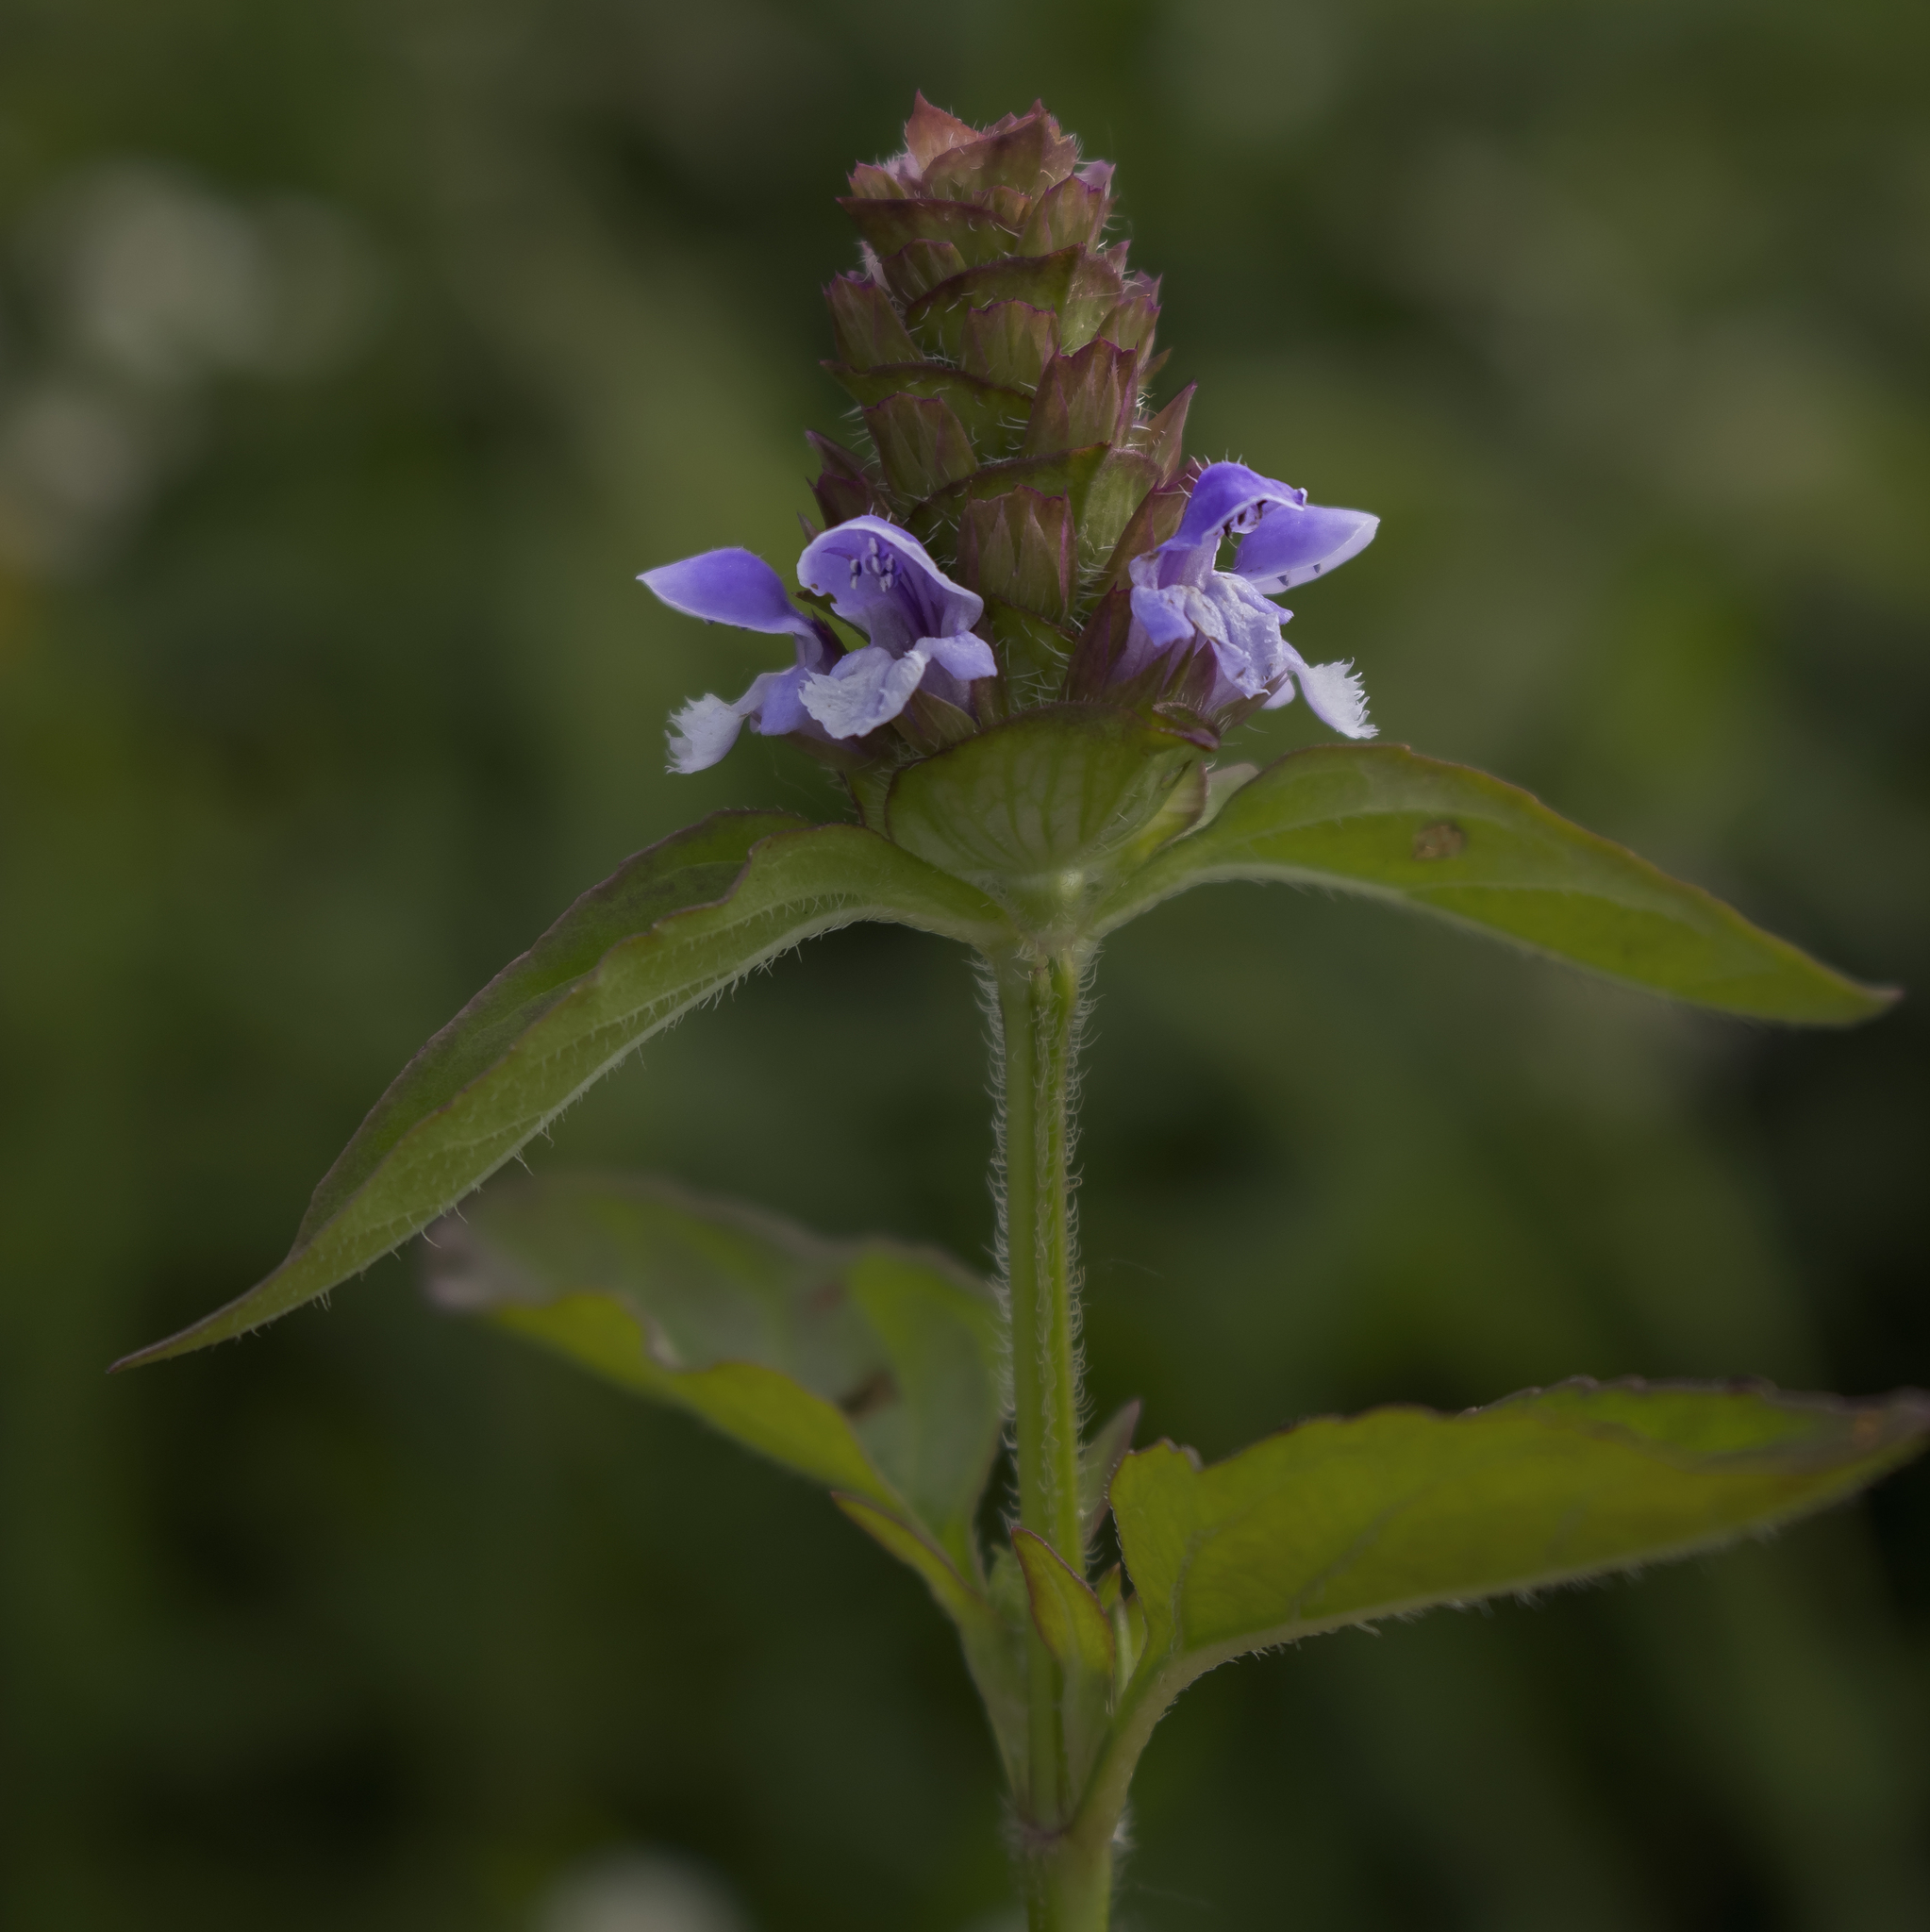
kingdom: Plantae
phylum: Tracheophyta
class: Magnoliopsida
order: Lamiales
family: Lamiaceae
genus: Prunella
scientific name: Prunella vulgaris
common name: Heal-all
